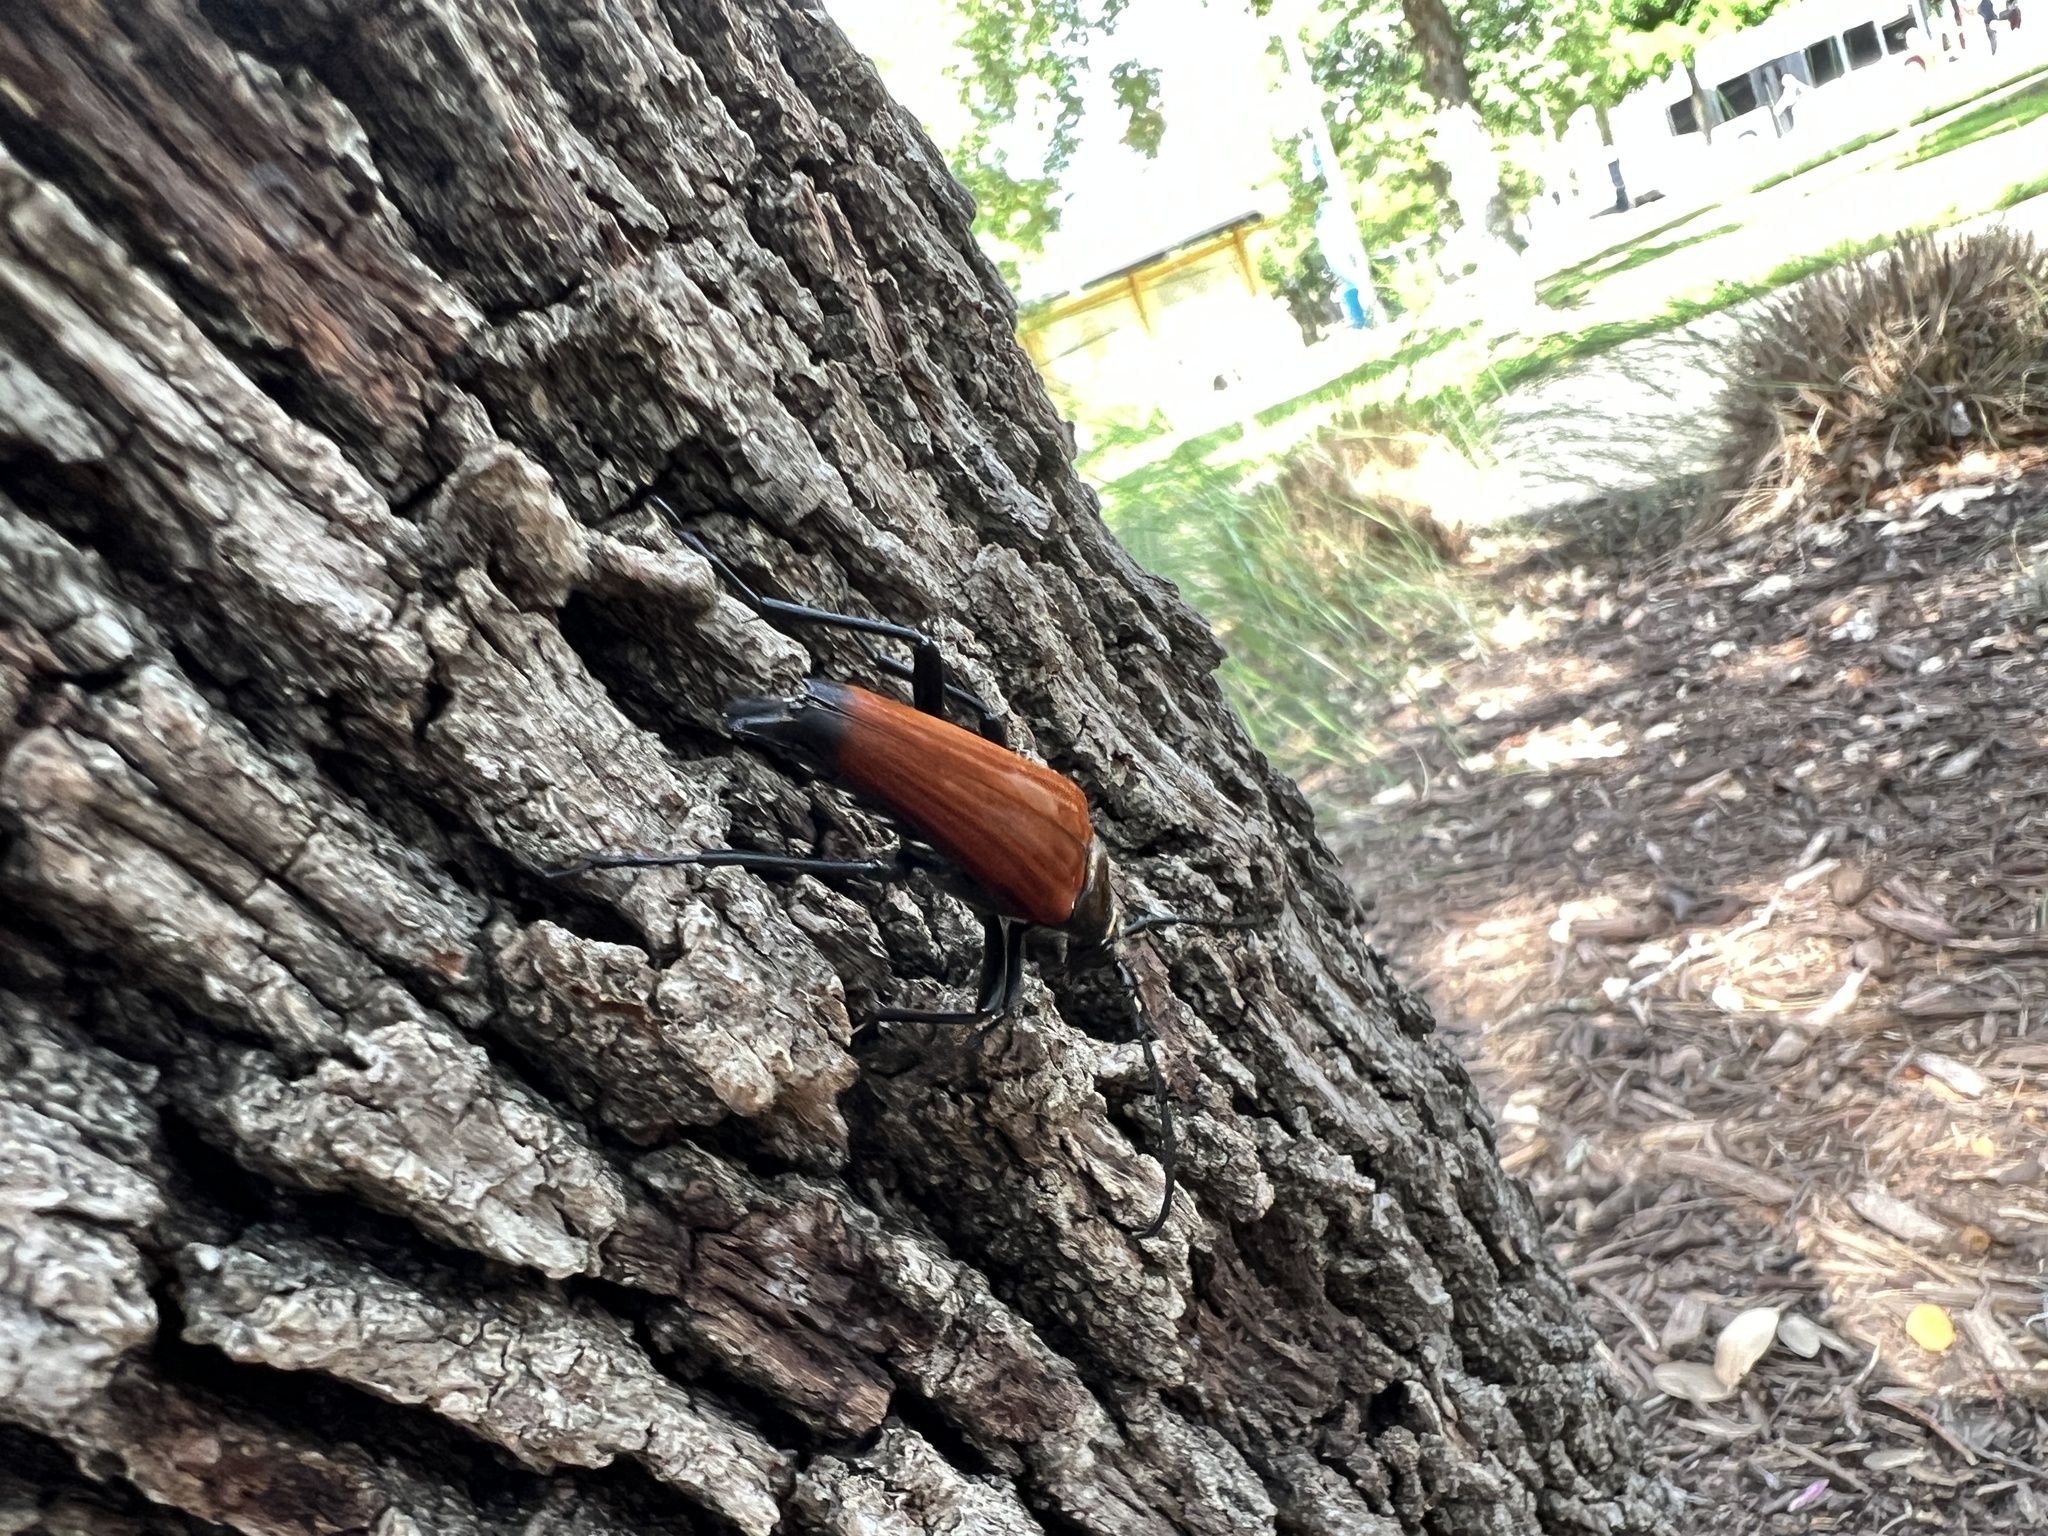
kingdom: Animalia
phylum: Arthropoda
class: Insecta
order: Coleoptera
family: Cerambycidae
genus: Stenelytrana
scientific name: Stenelytrana gigas
